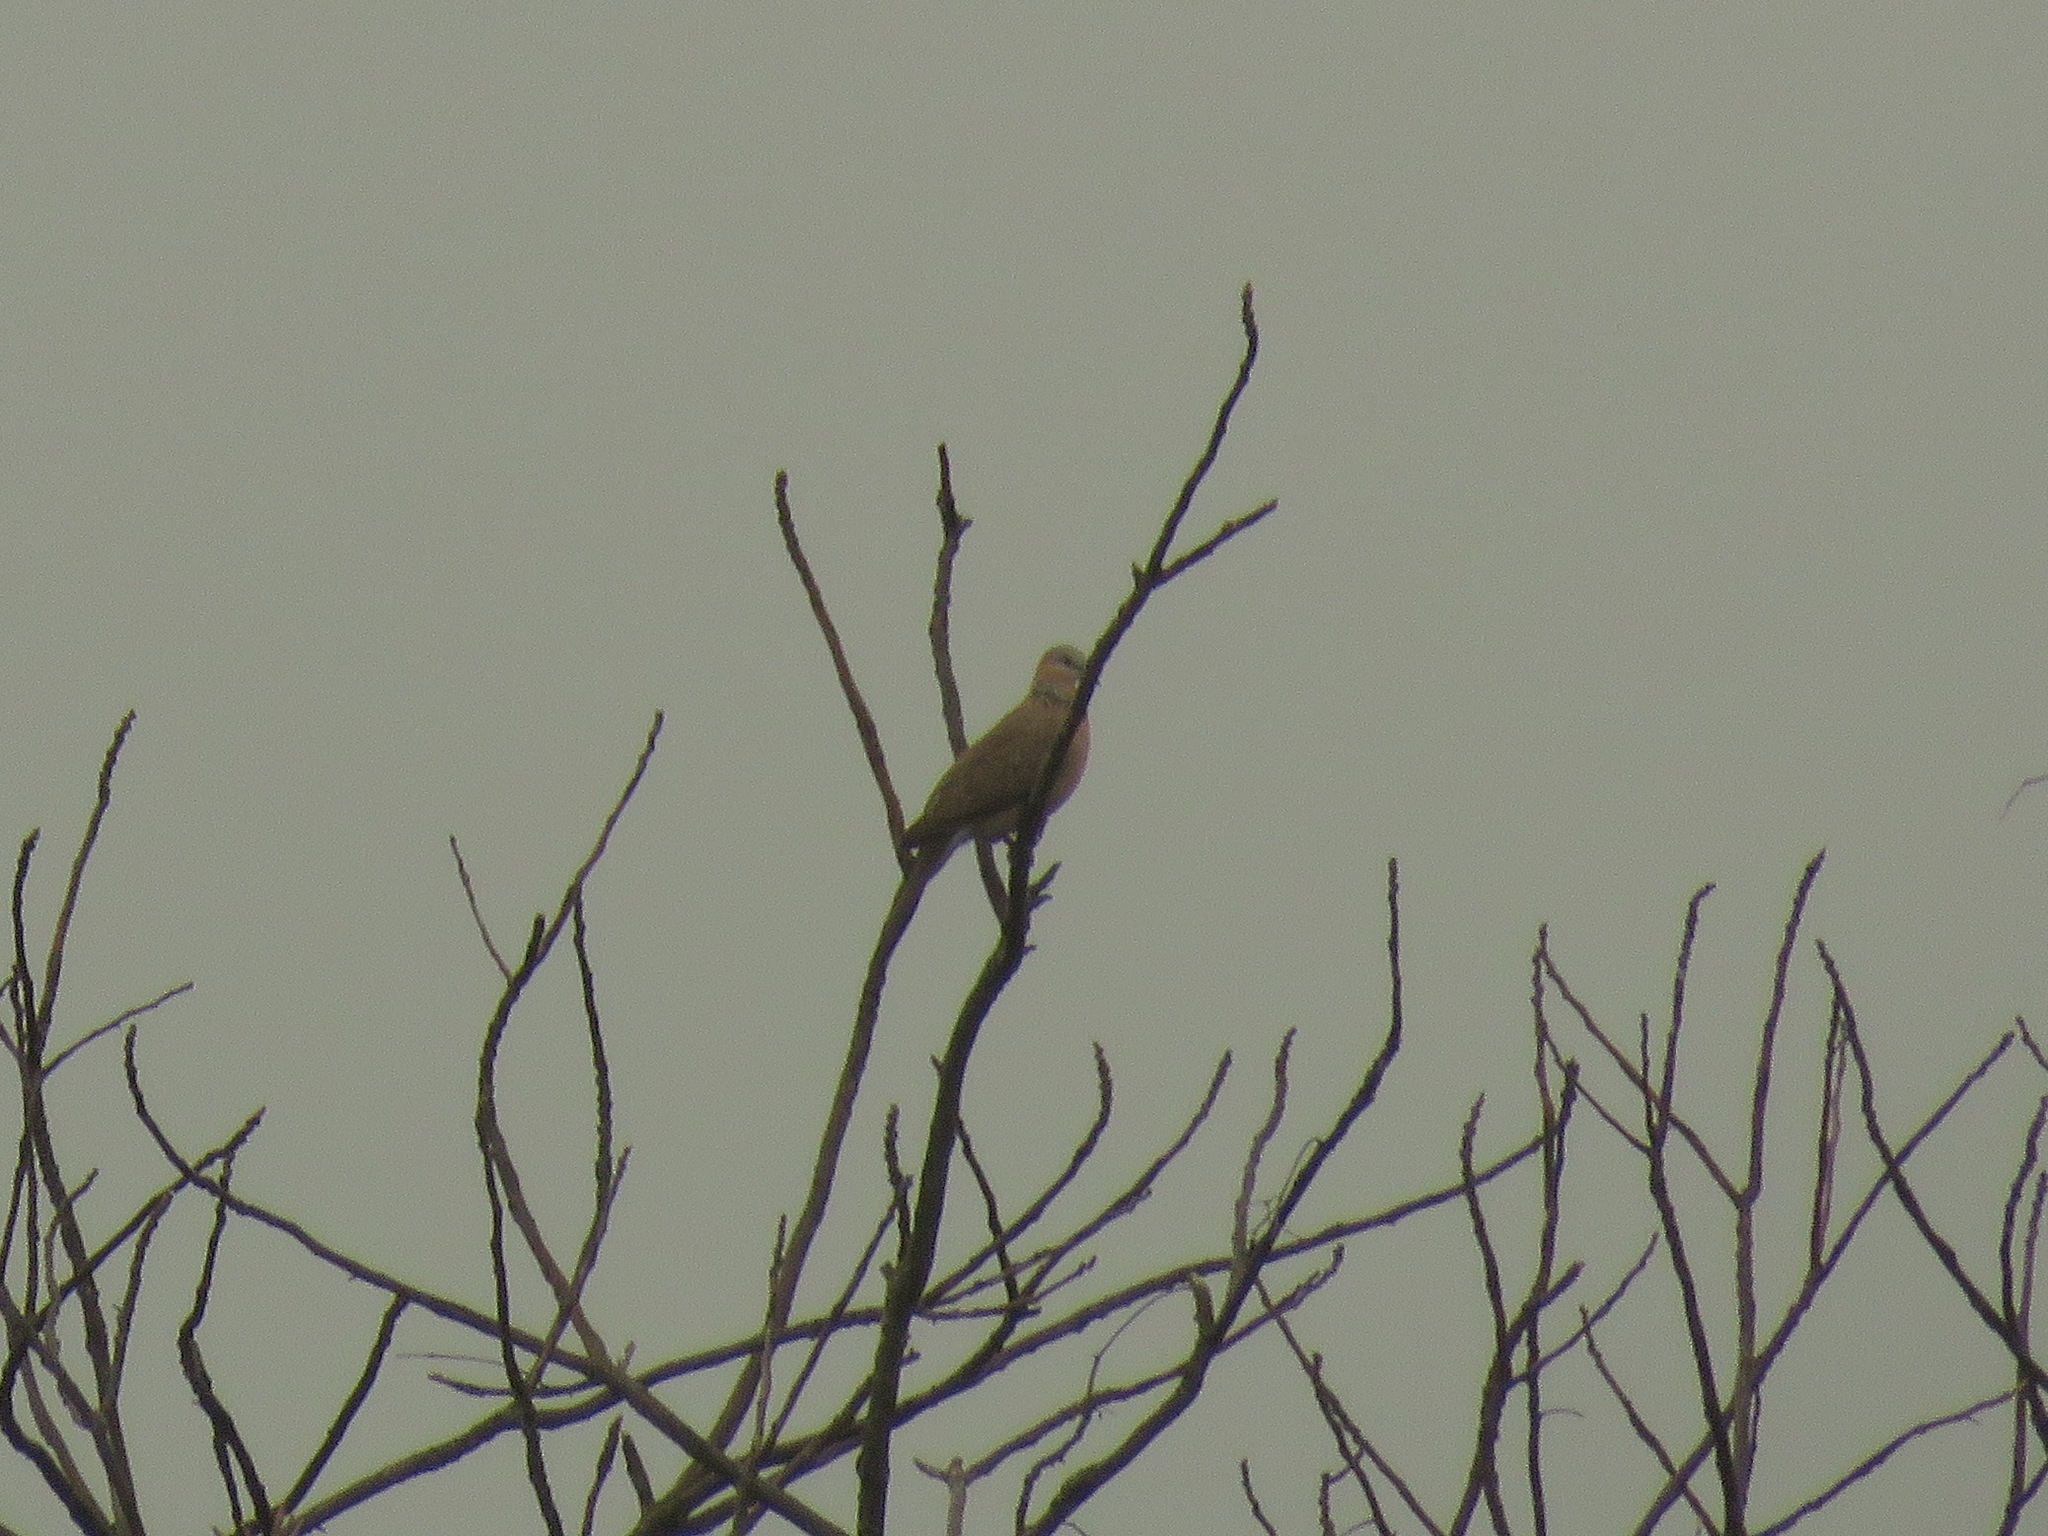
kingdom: Animalia
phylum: Chordata
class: Aves
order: Columbiformes
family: Columbidae
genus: Spilopelia
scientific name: Spilopelia chinensis
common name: Spotted dove
